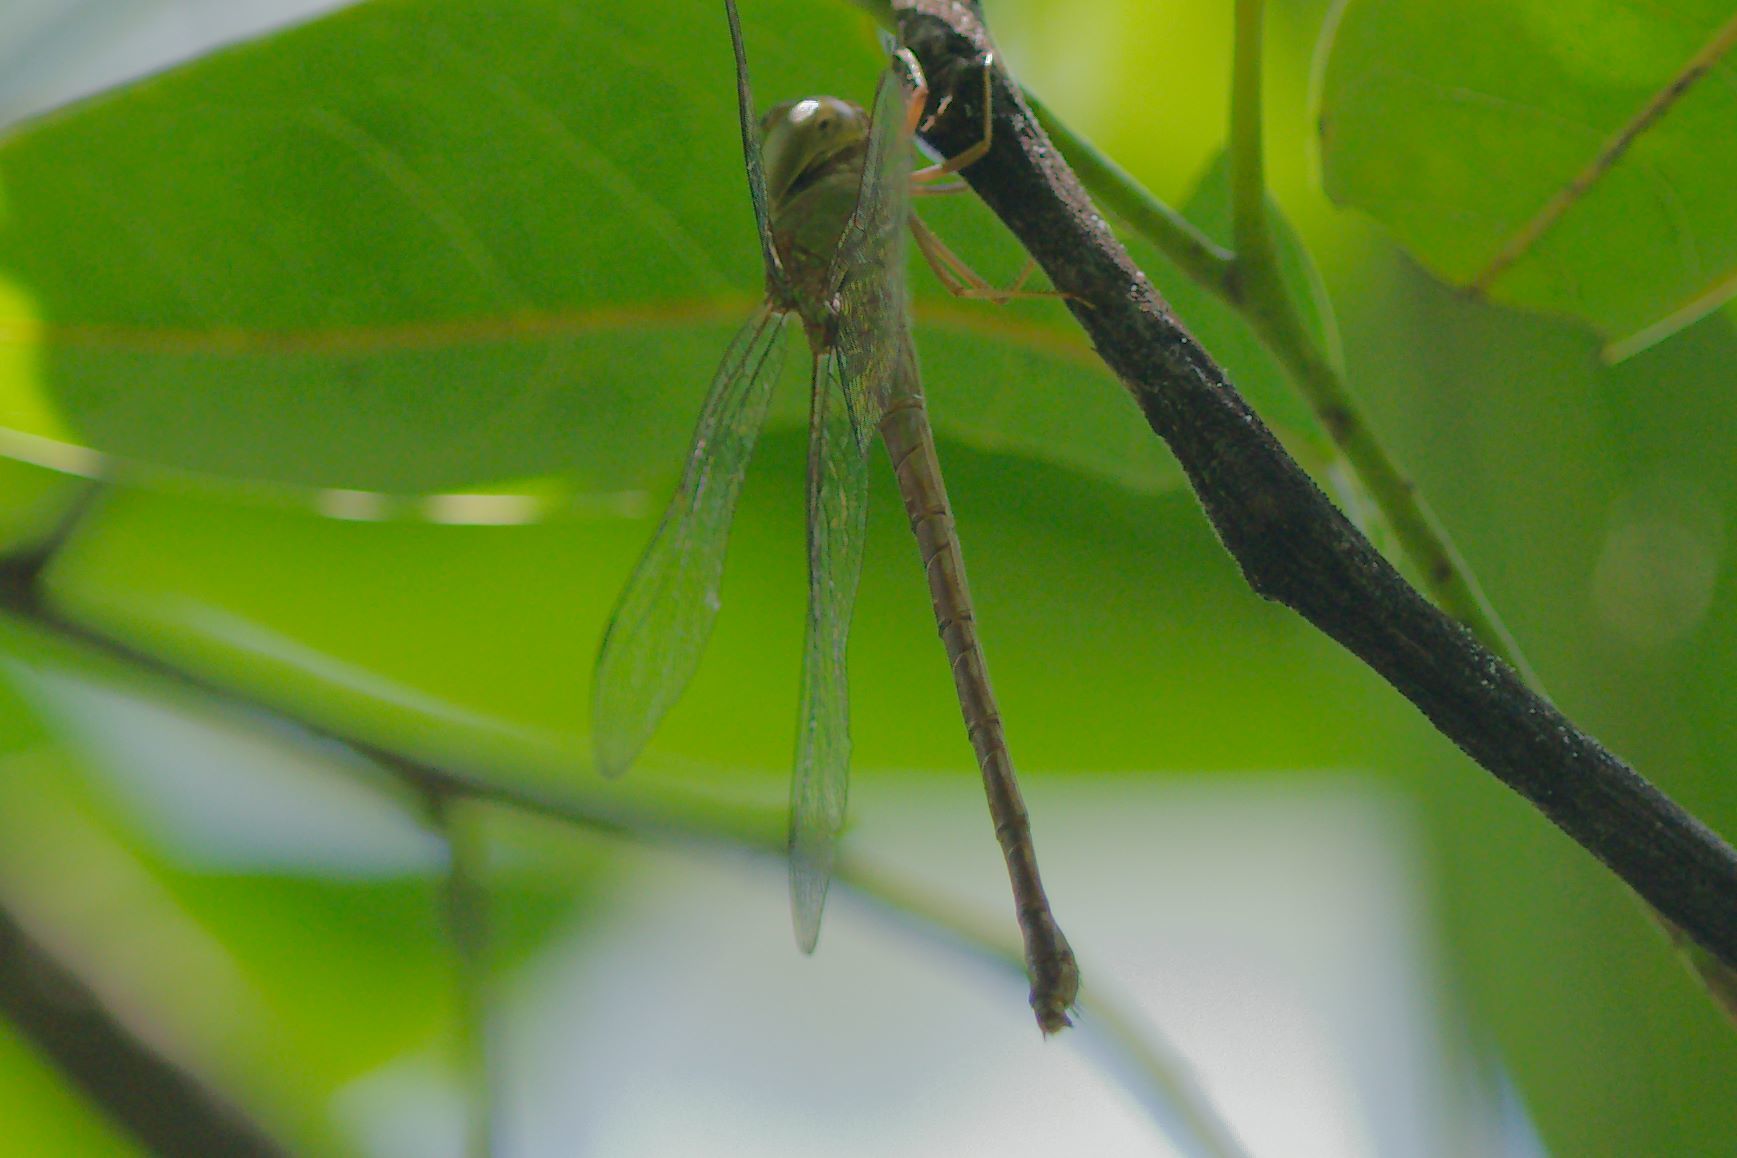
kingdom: Animalia
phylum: Arthropoda
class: Insecta
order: Odonata
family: Aeshnidae
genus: Triacanthagyna
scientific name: Triacanthagyna septima
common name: Pale-green darner
